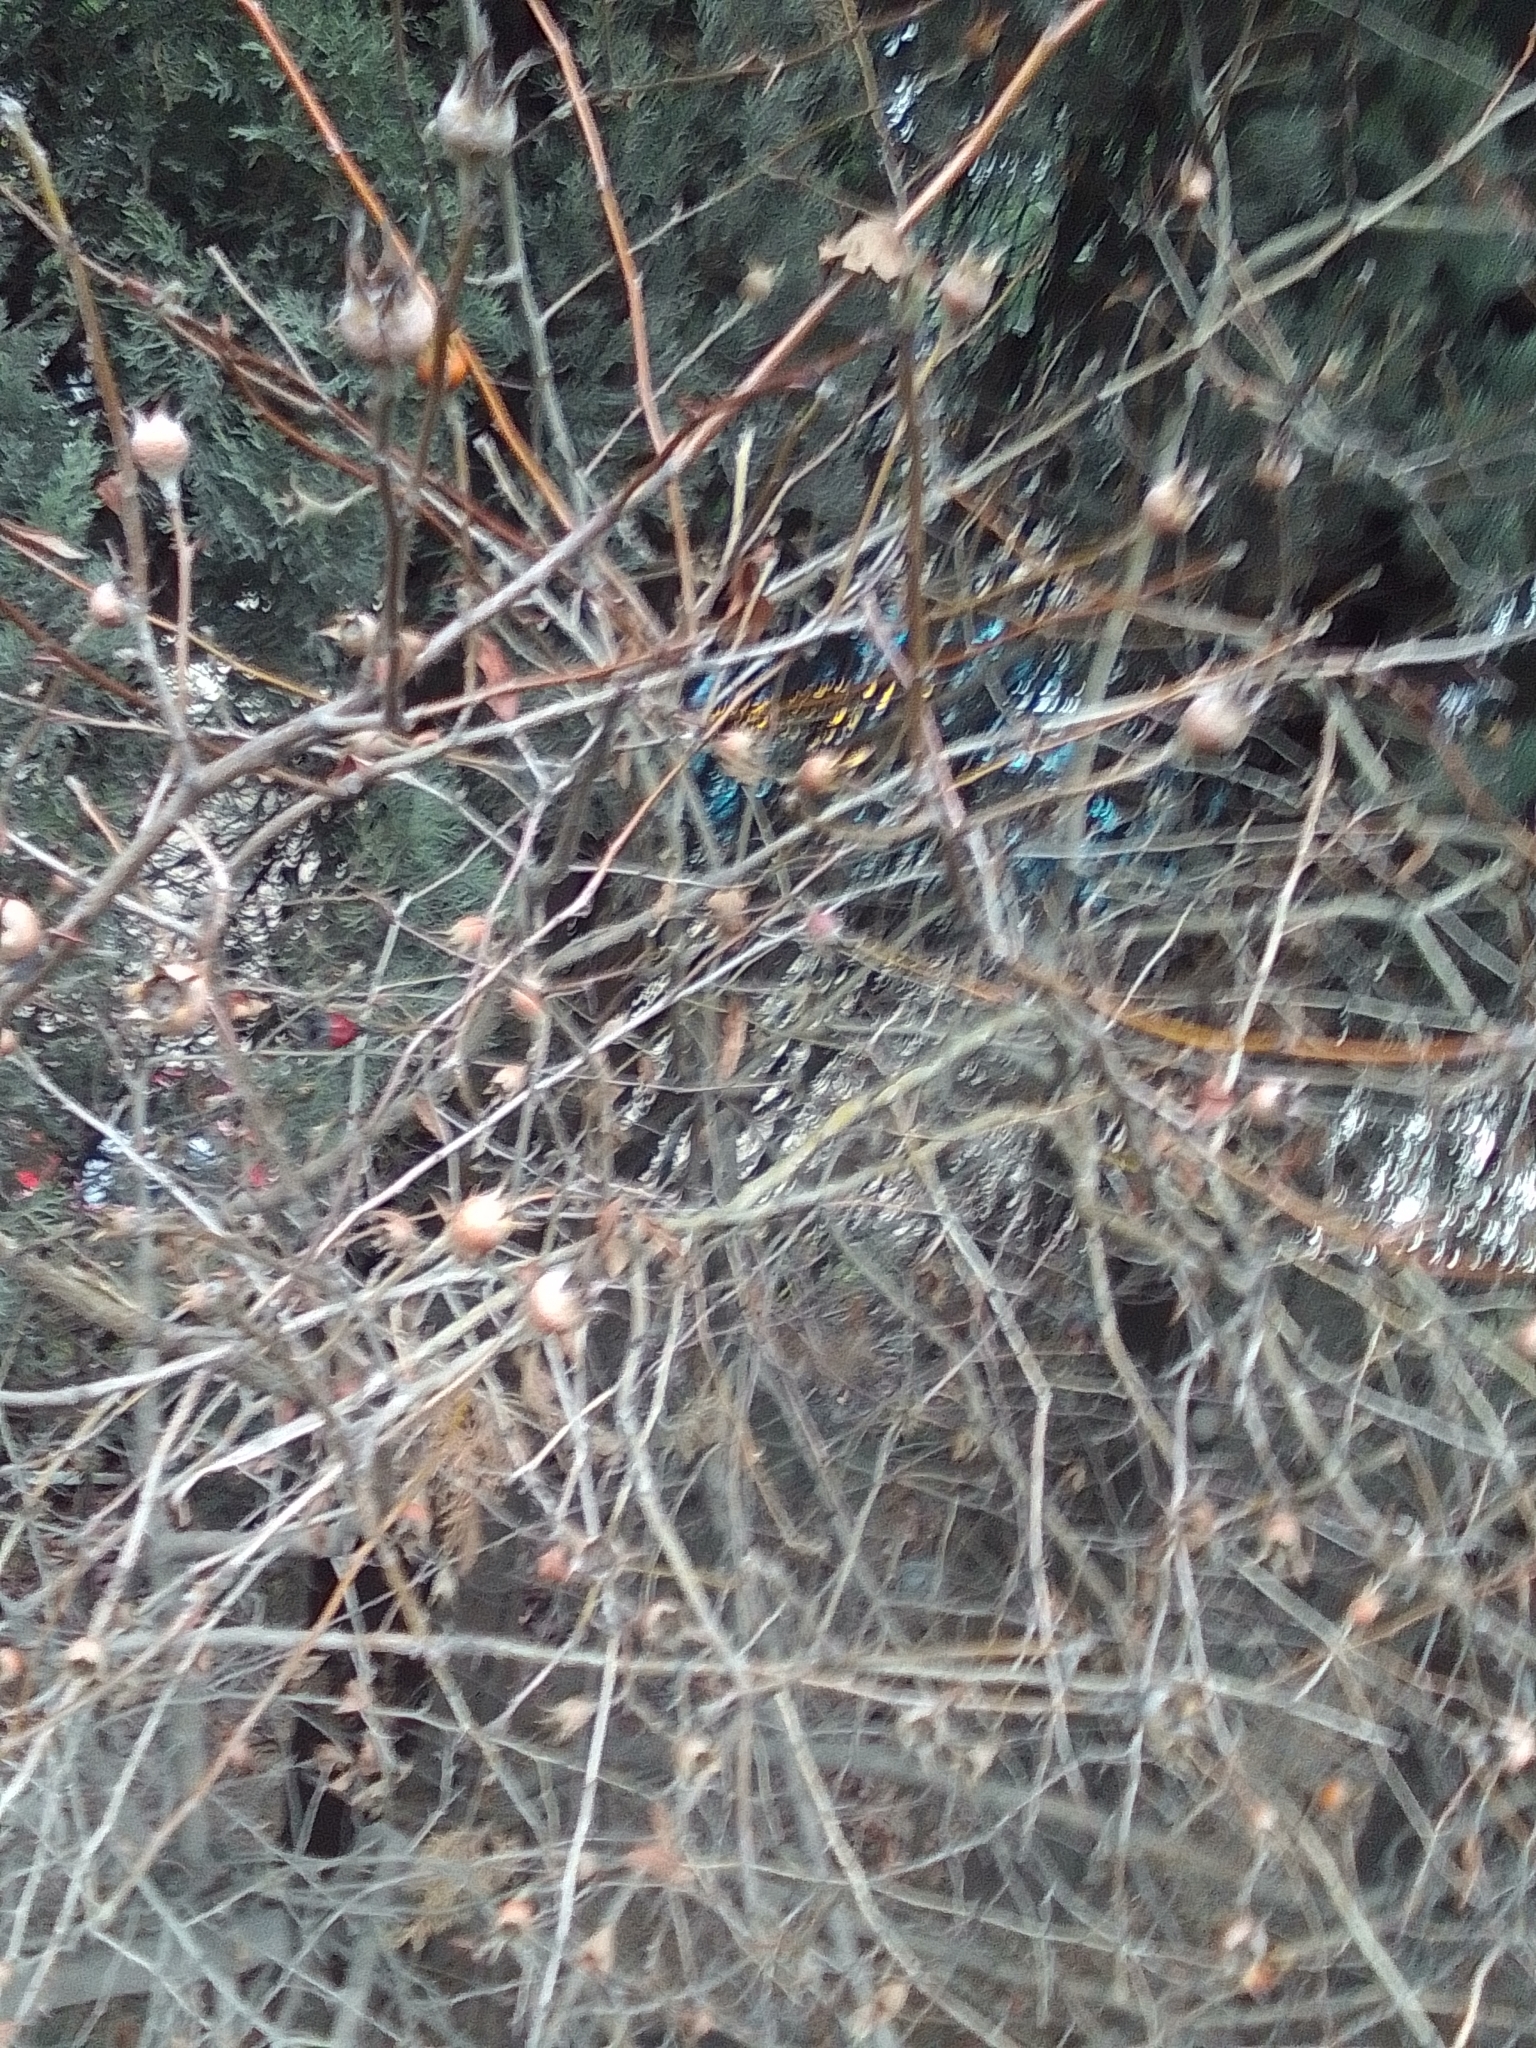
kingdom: Plantae
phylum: Tracheophyta
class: Magnoliopsida
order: Rosales
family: Rosaceae
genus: Mespilus
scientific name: Mespilus germanica
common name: Medlar
